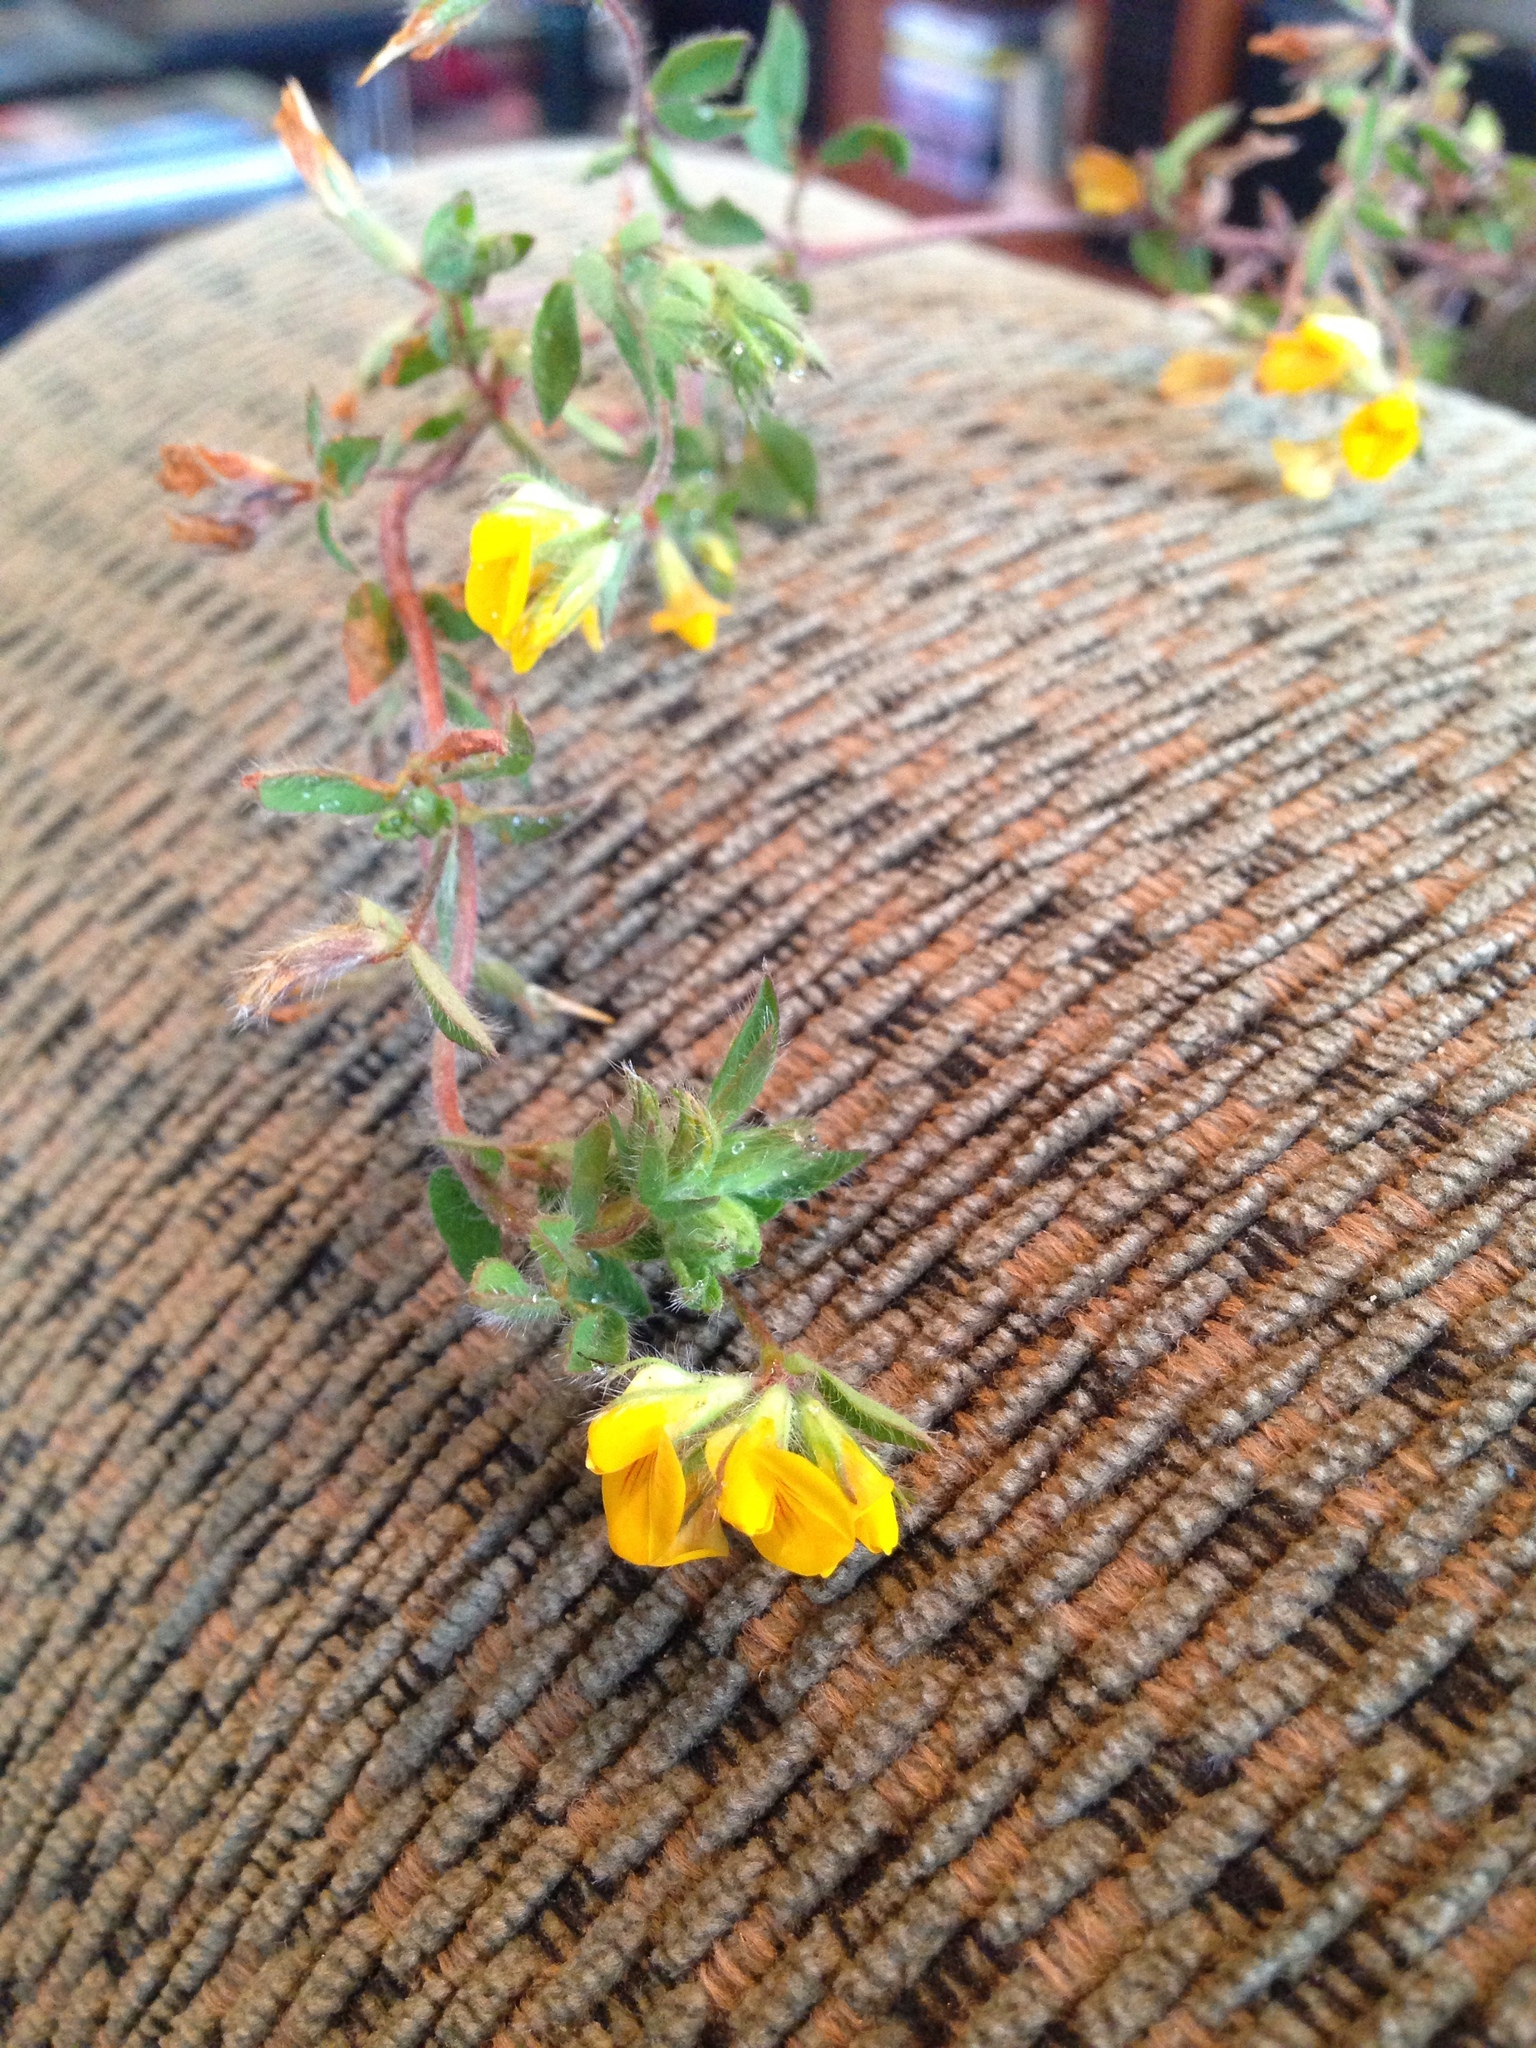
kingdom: Plantae
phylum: Tracheophyta
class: Magnoliopsida
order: Fabales
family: Fabaceae
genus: Lotus
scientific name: Lotus subbiflorus
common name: Hairy bird's-foot trefoil
